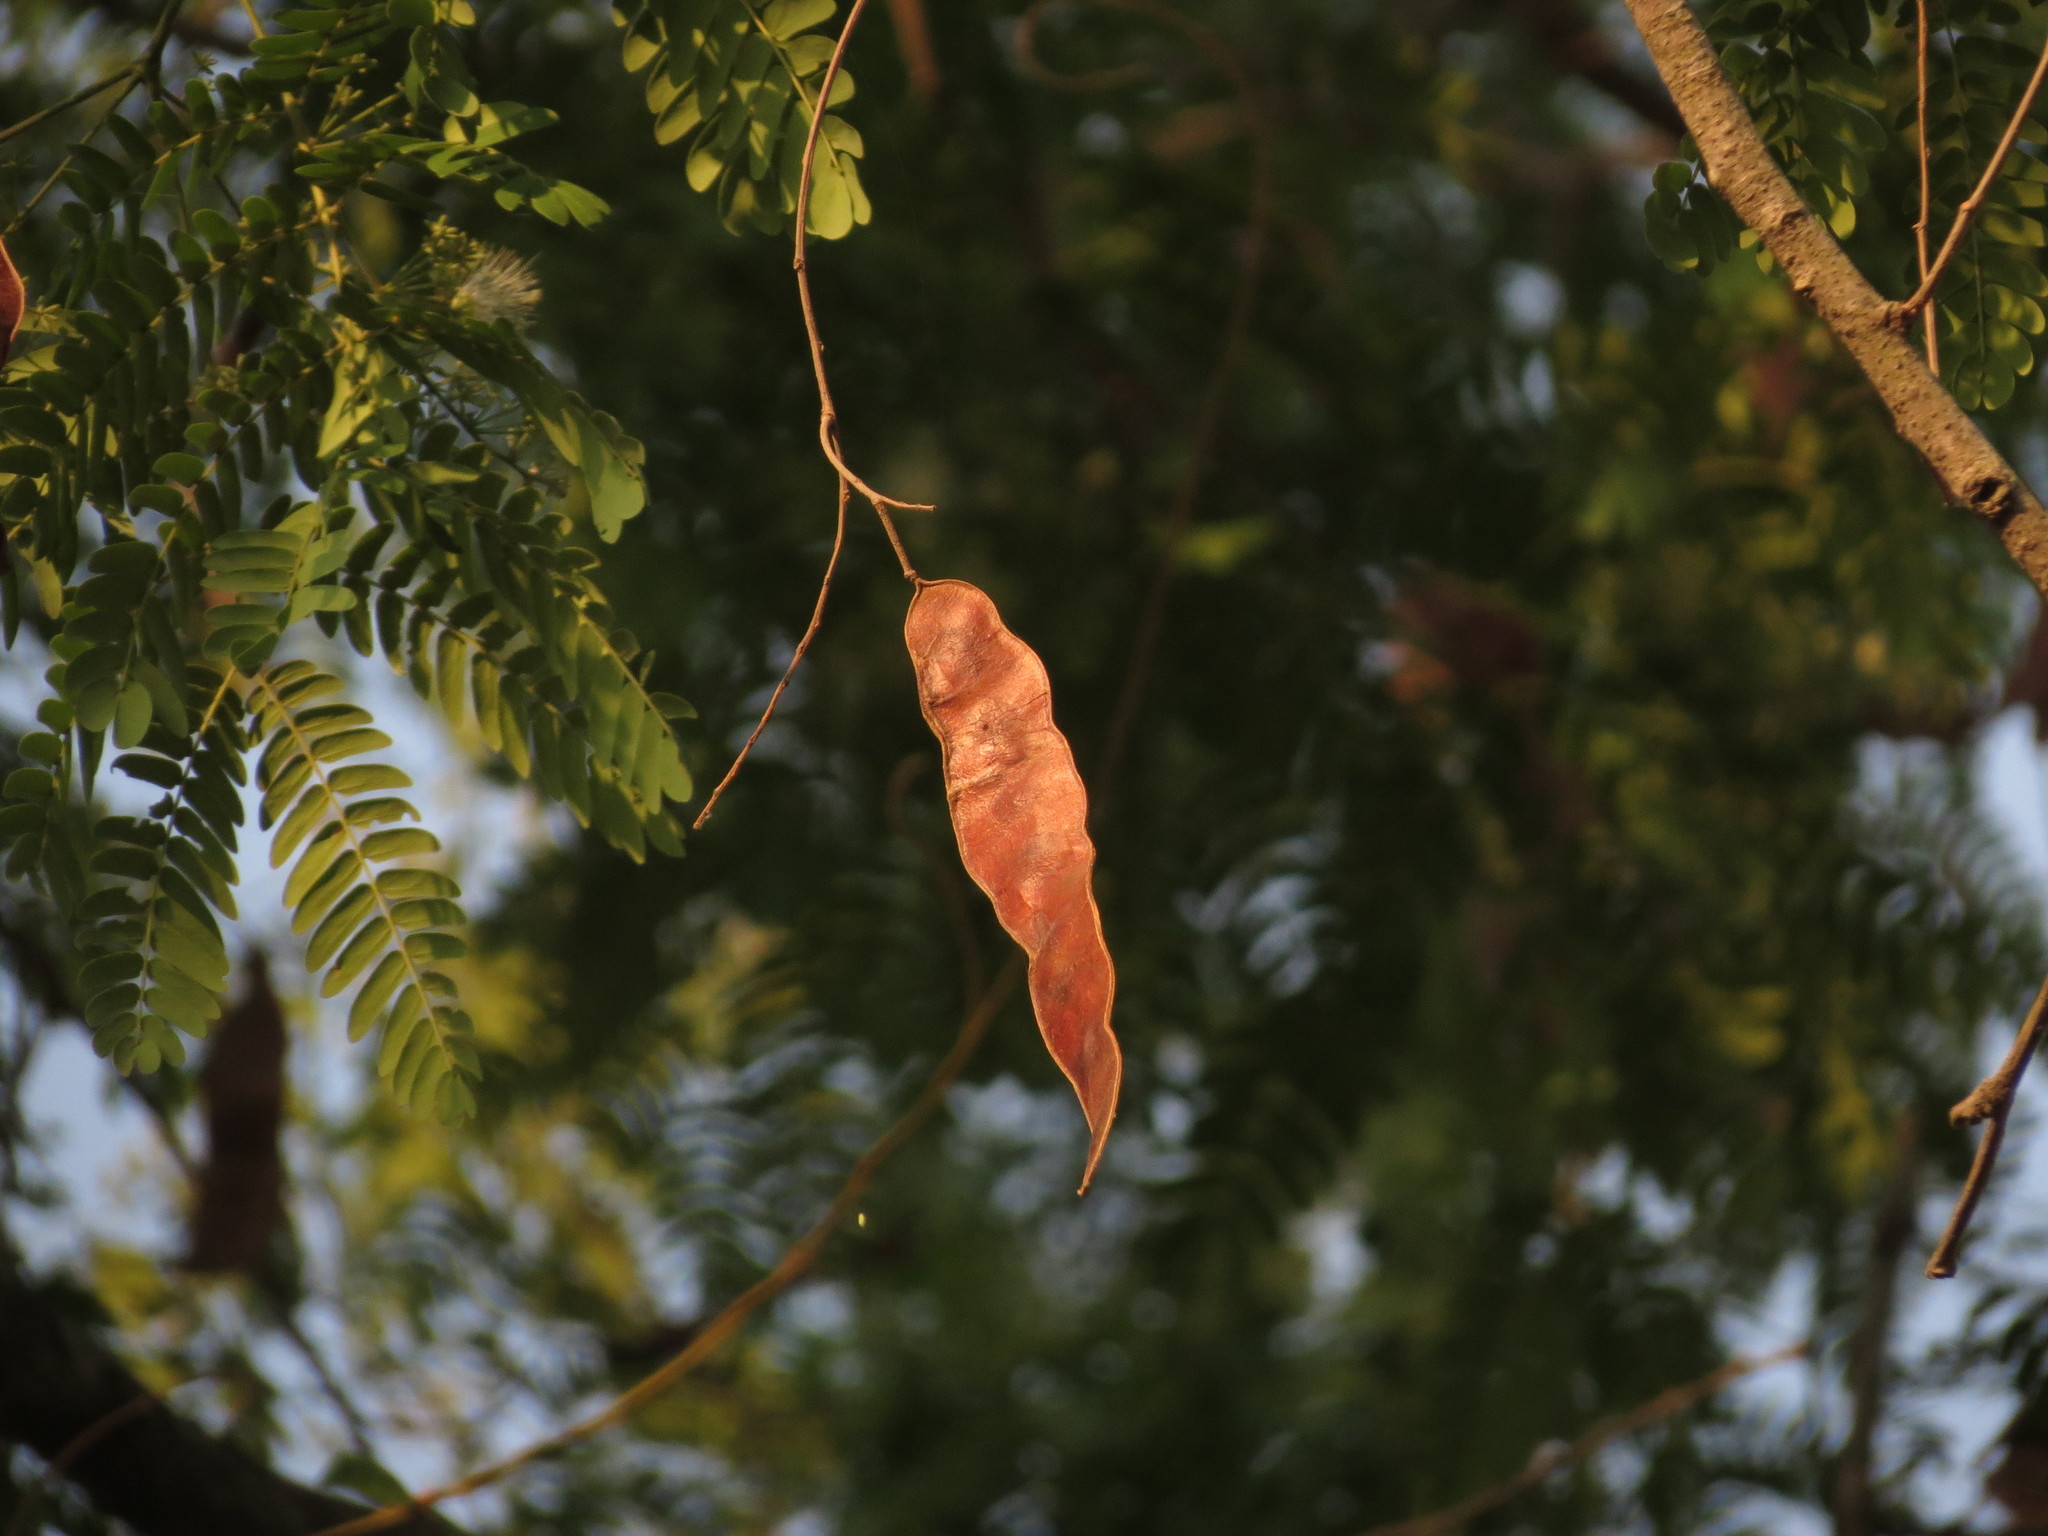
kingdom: Plantae
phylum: Tracheophyta
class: Magnoliopsida
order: Fabales
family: Fabaceae
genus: Albizia
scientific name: Albizia odoratissima
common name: Ceylon rosewood
